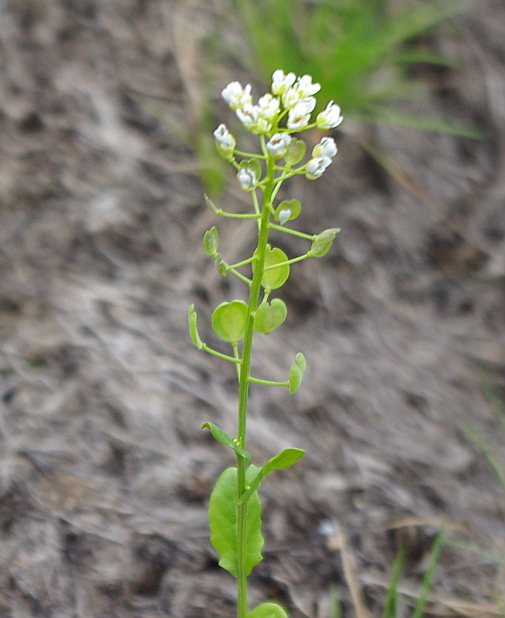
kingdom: Plantae
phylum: Tracheophyta
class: Magnoliopsida
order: Brassicales
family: Brassicaceae
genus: Thlaspi
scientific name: Thlaspi arvense
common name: Field pennycress
